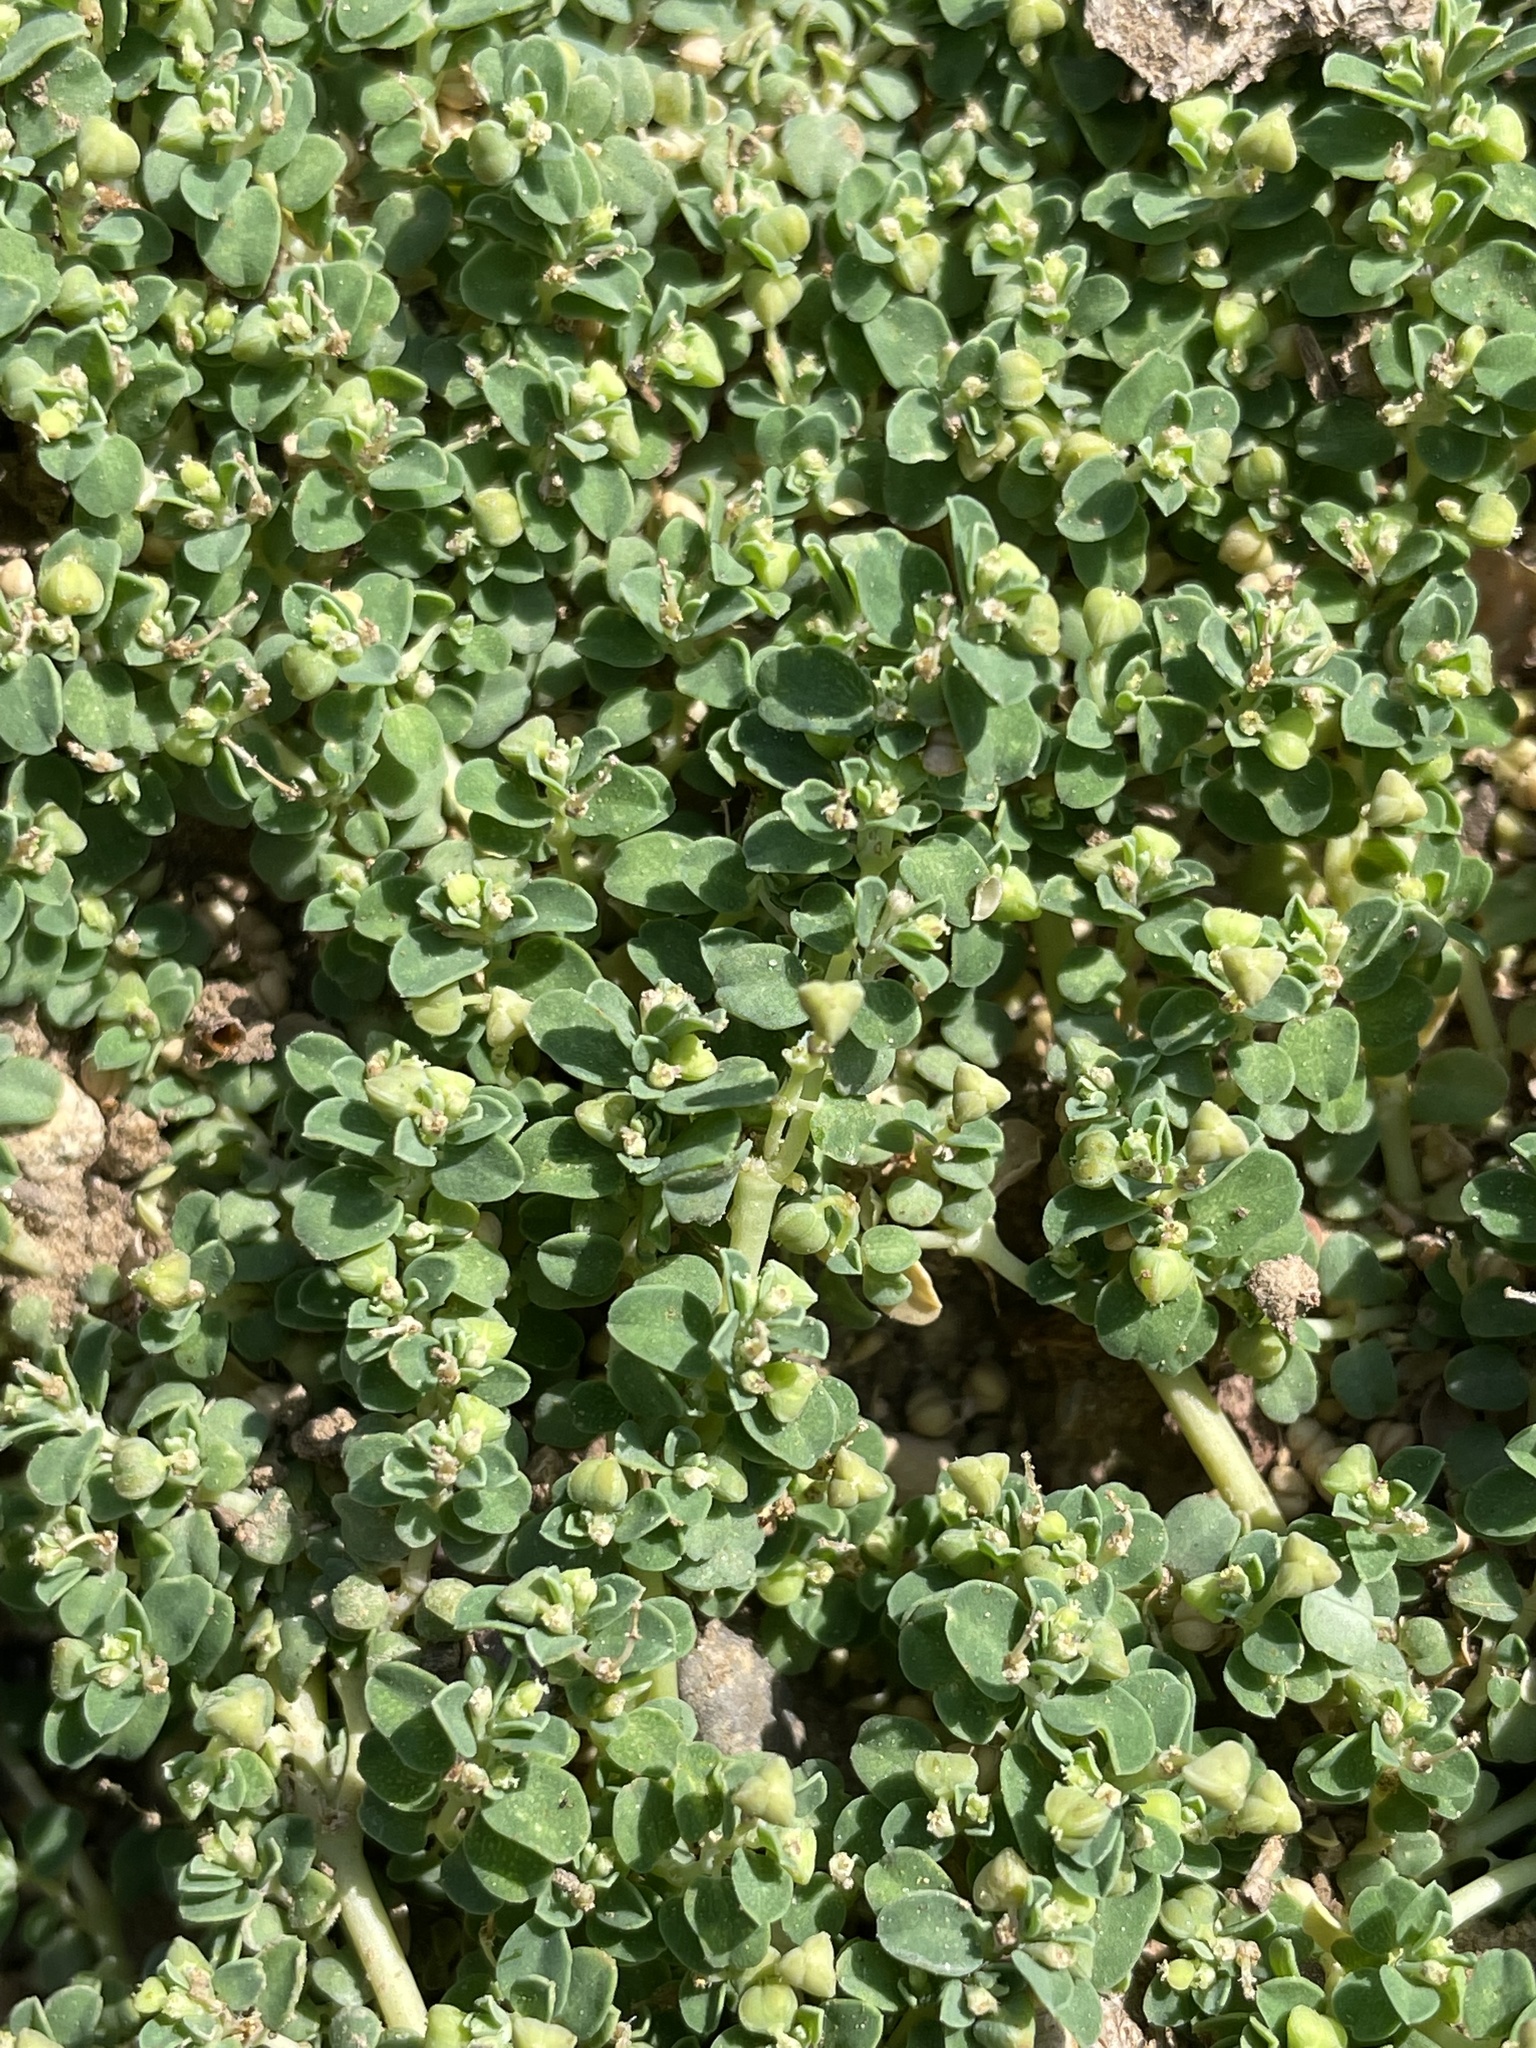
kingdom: Plantae
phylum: Tracheophyta
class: Magnoliopsida
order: Malpighiales
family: Euphorbiaceae
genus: Euphorbia
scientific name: Euphorbia serpens
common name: Matted sandmat
